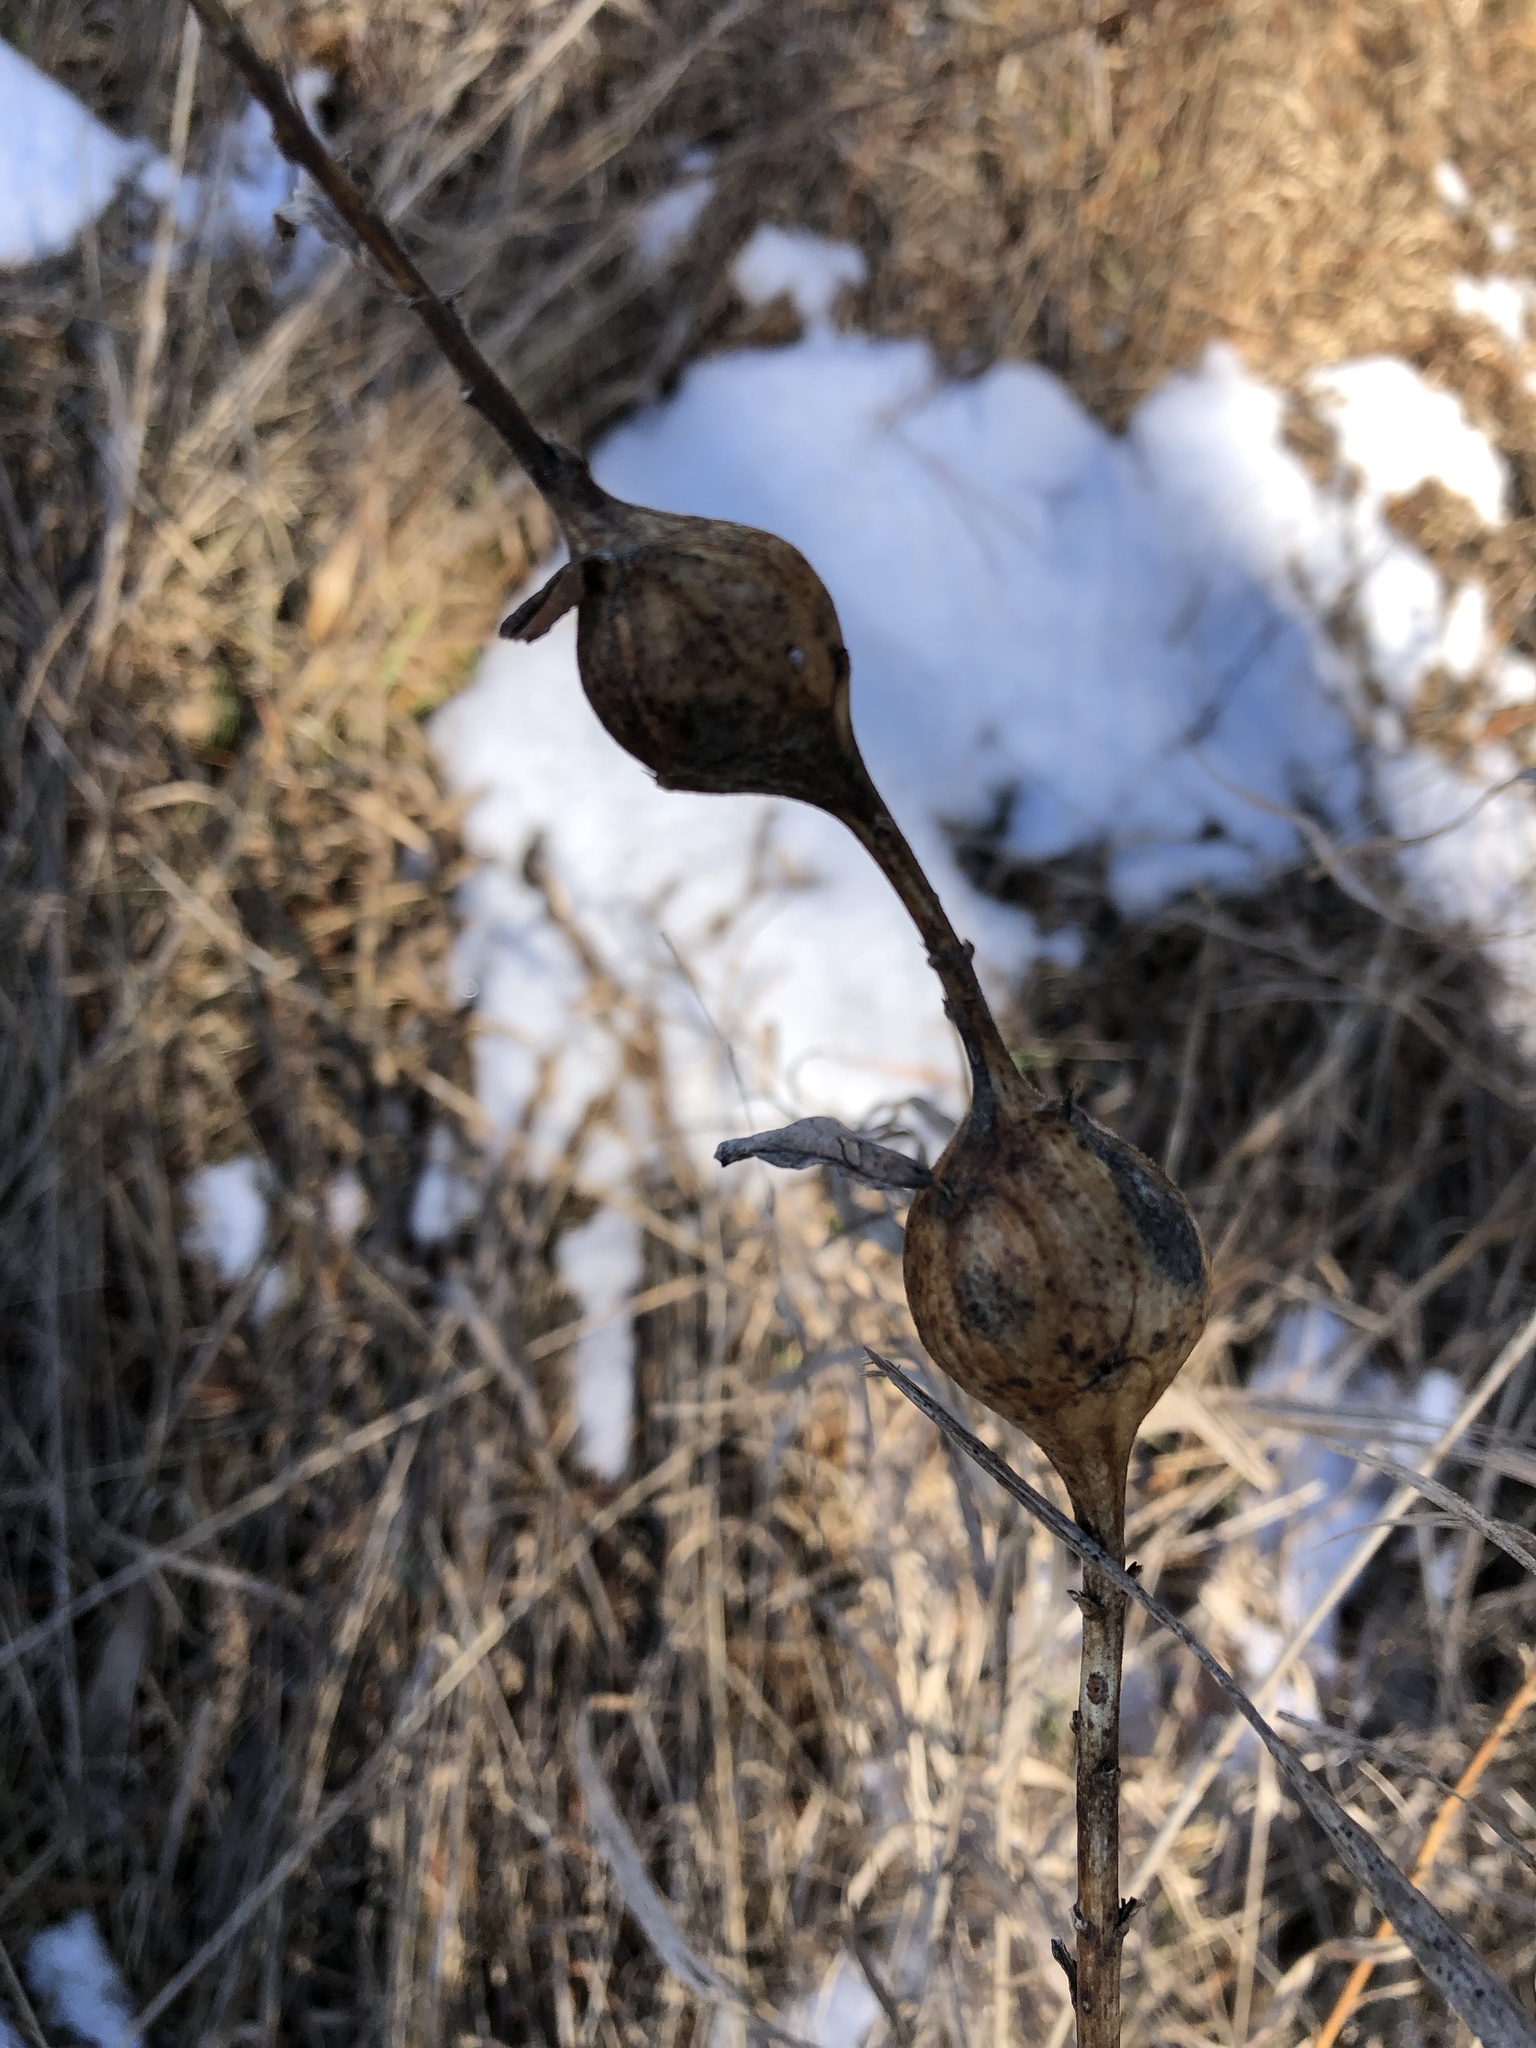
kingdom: Animalia
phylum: Arthropoda
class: Insecta
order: Diptera
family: Tephritidae
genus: Eurosta
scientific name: Eurosta solidaginis
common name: Goldenrod gall fly
